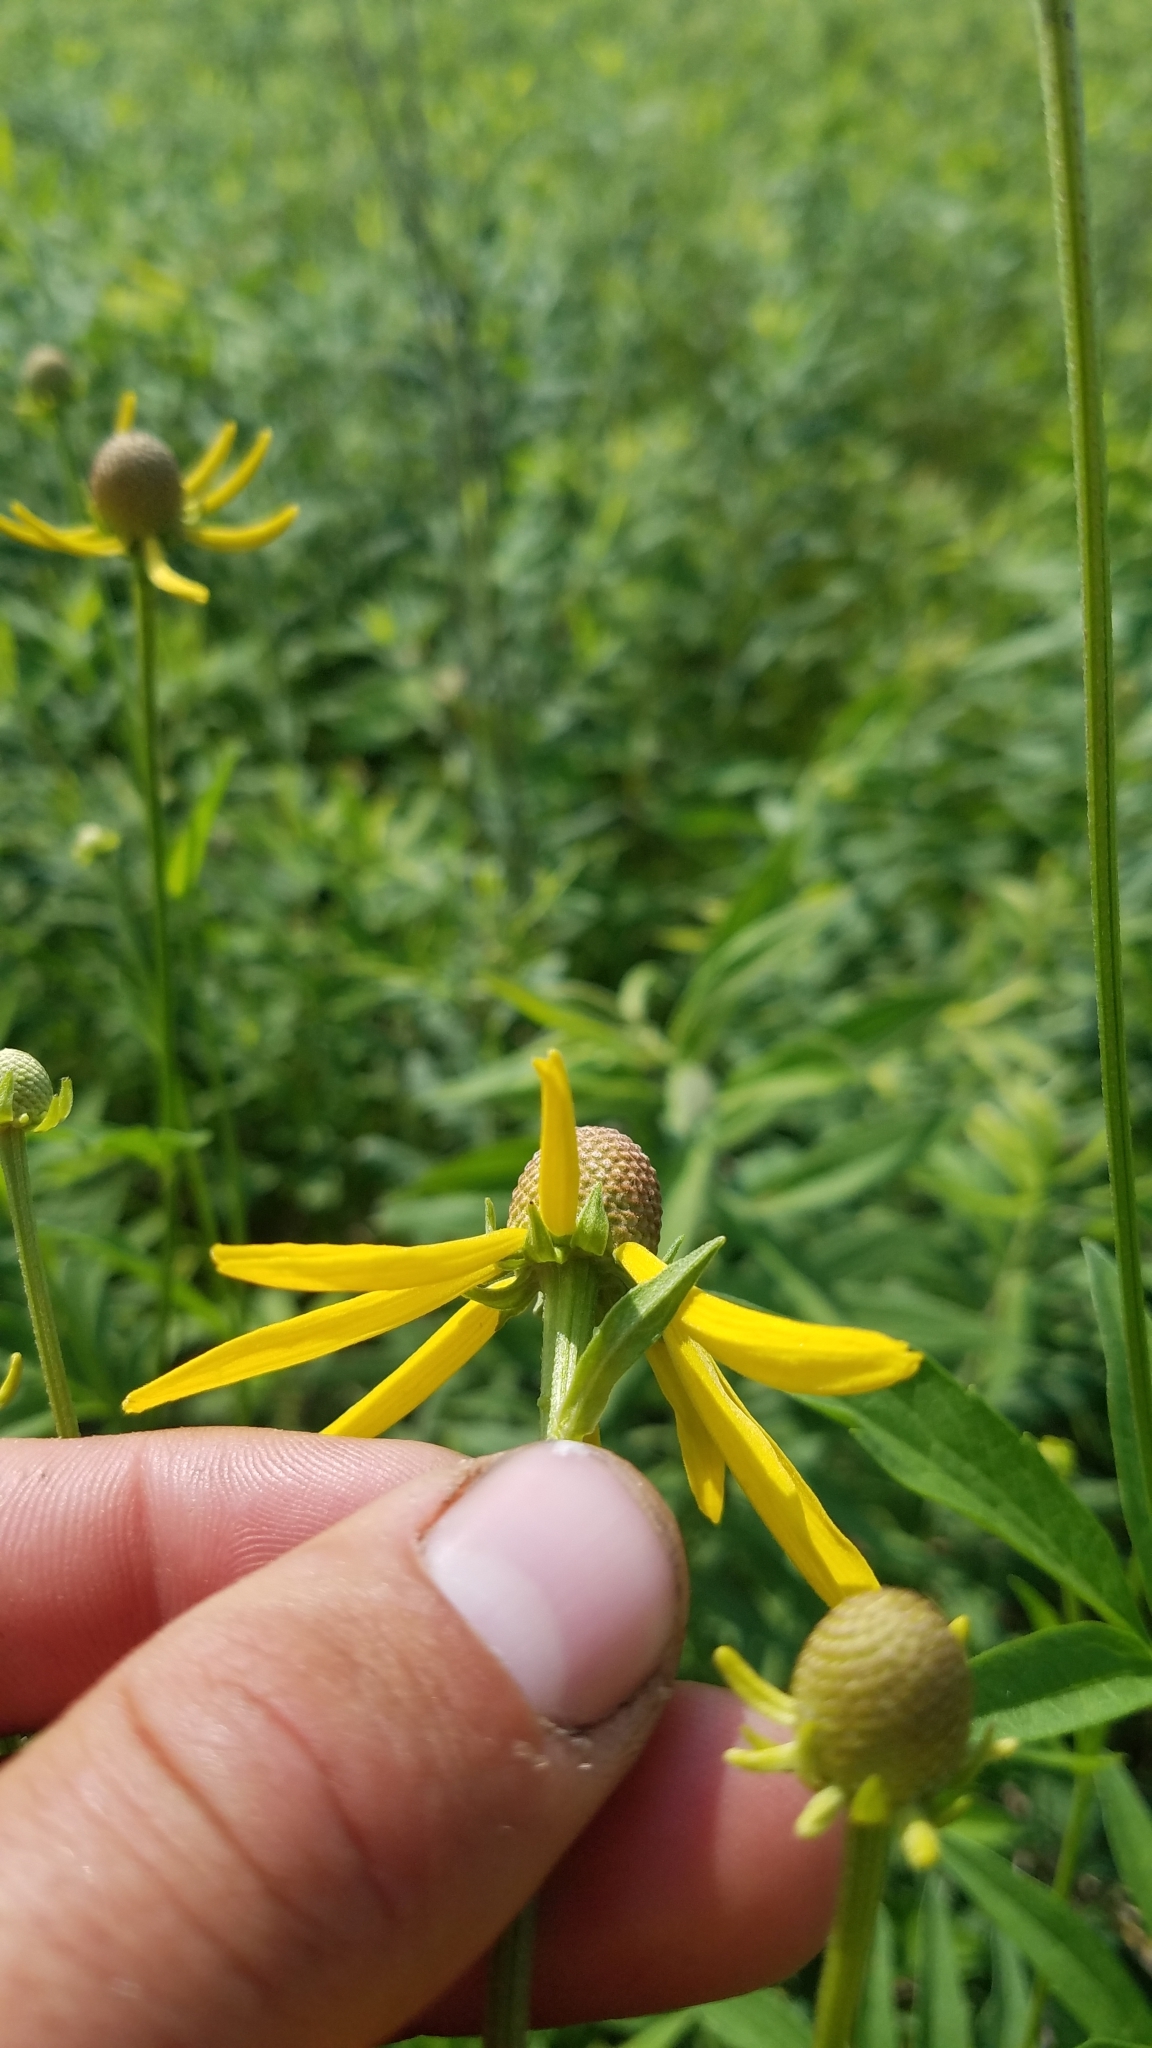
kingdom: Plantae
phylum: Tracheophyta
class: Magnoliopsida
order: Asterales
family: Asteraceae
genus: Ratibida
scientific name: Ratibida pinnata
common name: Drooping prairie-coneflower
